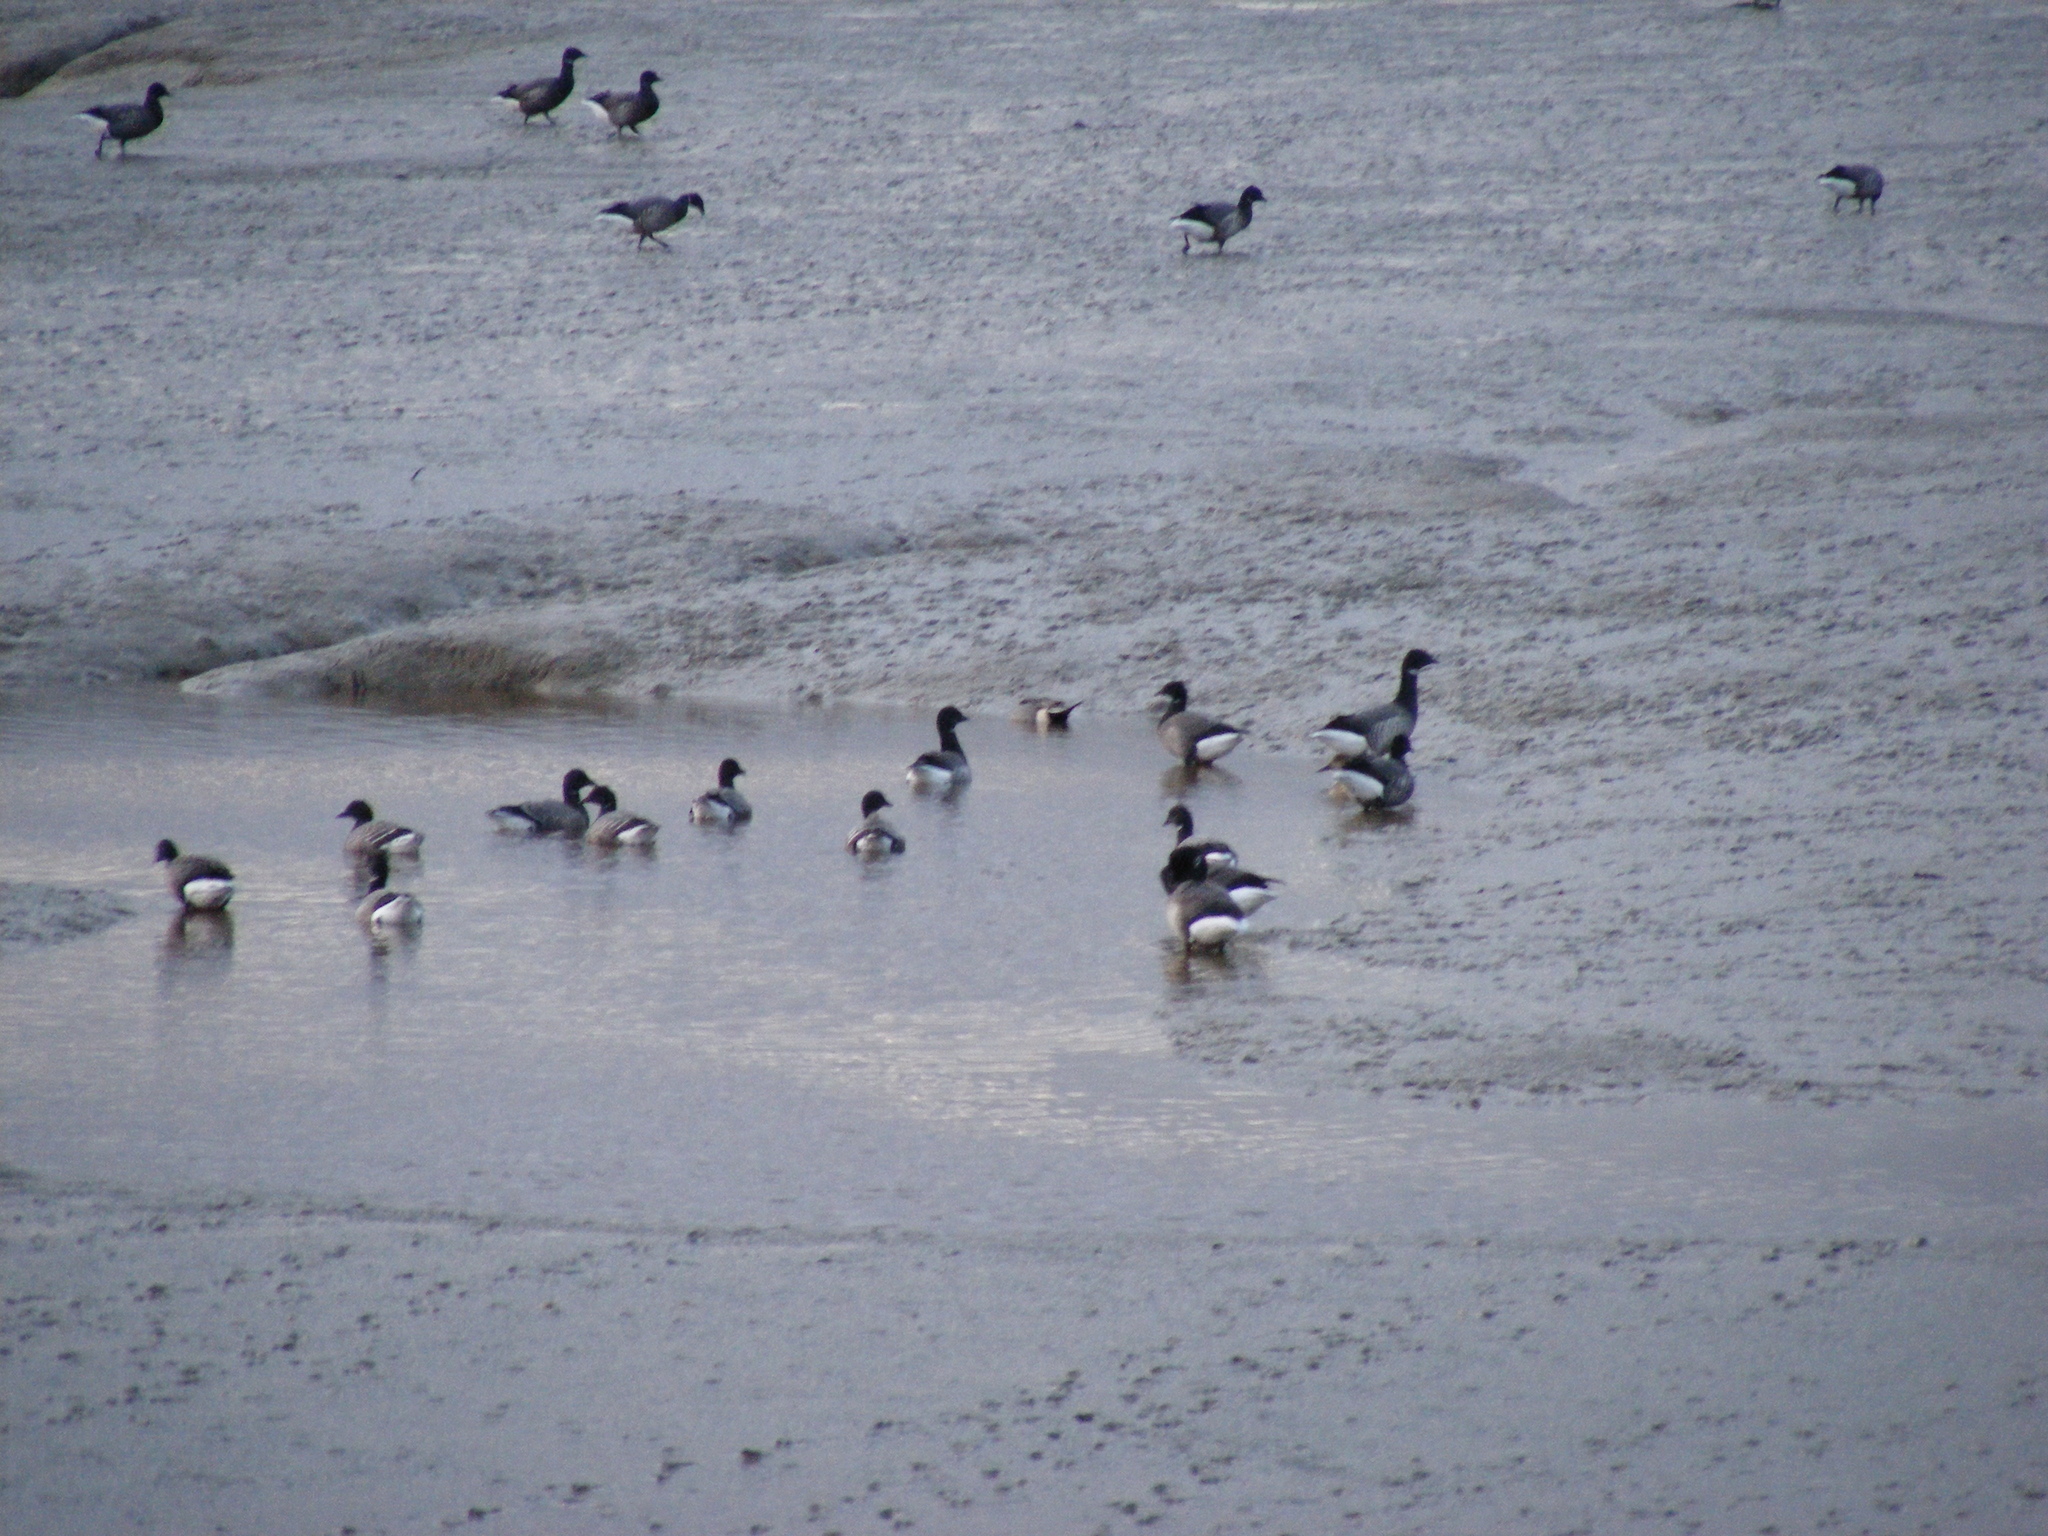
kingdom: Animalia
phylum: Chordata
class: Aves
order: Anseriformes
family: Anatidae
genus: Branta
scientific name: Branta bernicla
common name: Brant goose
